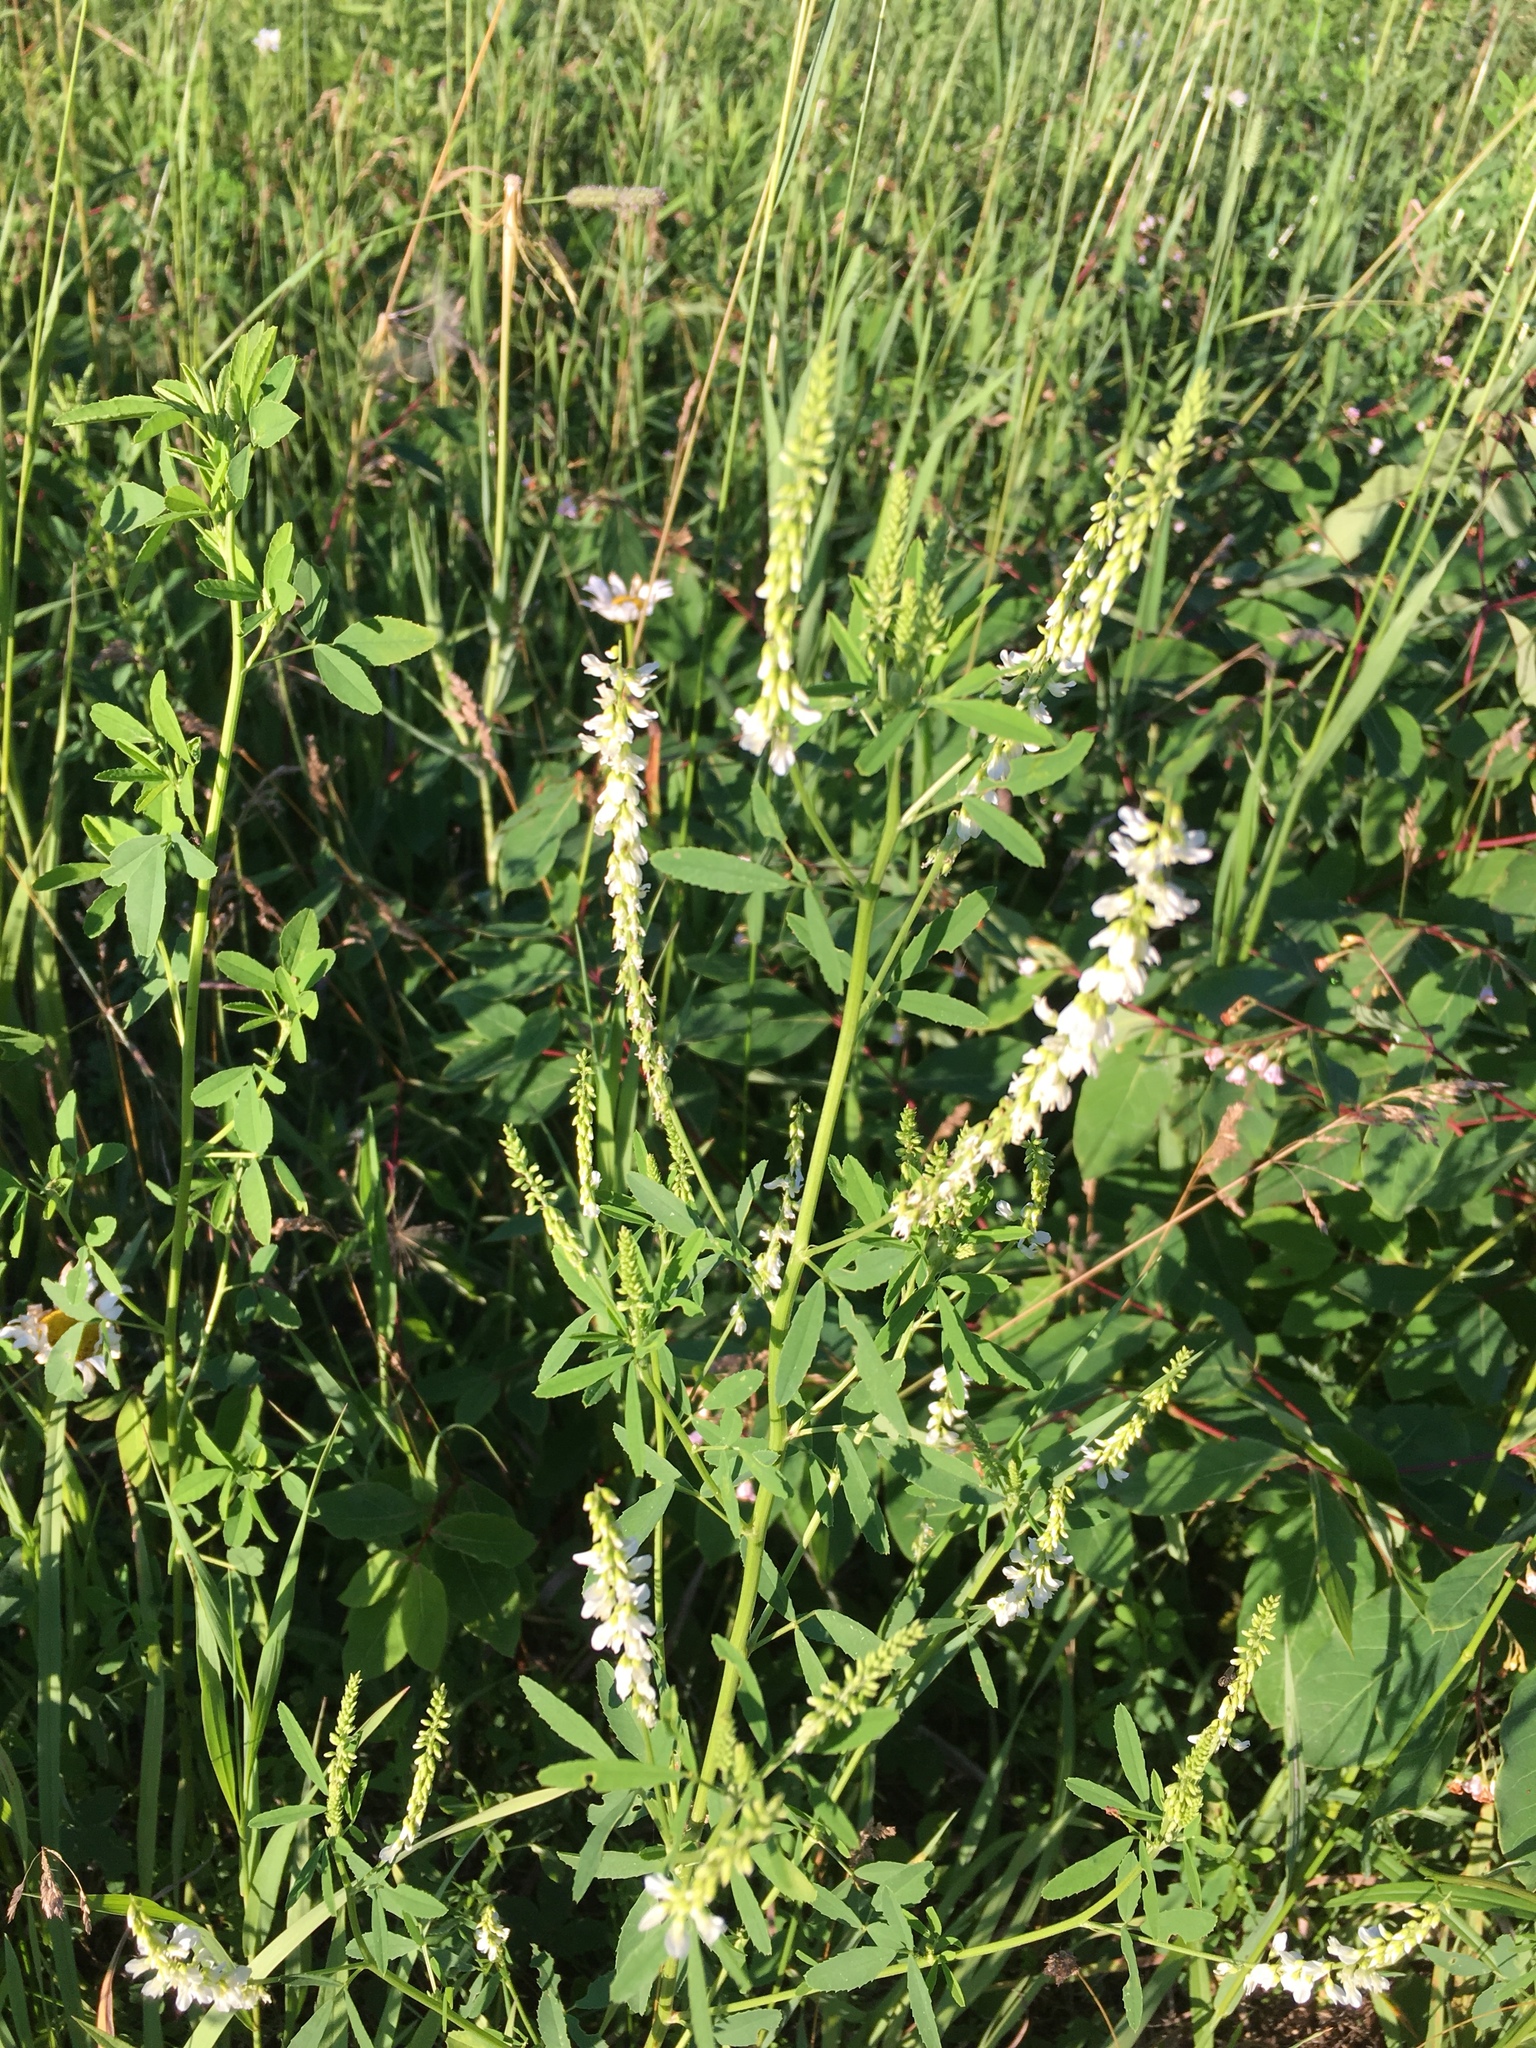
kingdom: Plantae
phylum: Tracheophyta
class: Magnoliopsida
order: Fabales
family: Fabaceae
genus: Melilotus
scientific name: Melilotus albus
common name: White melilot
